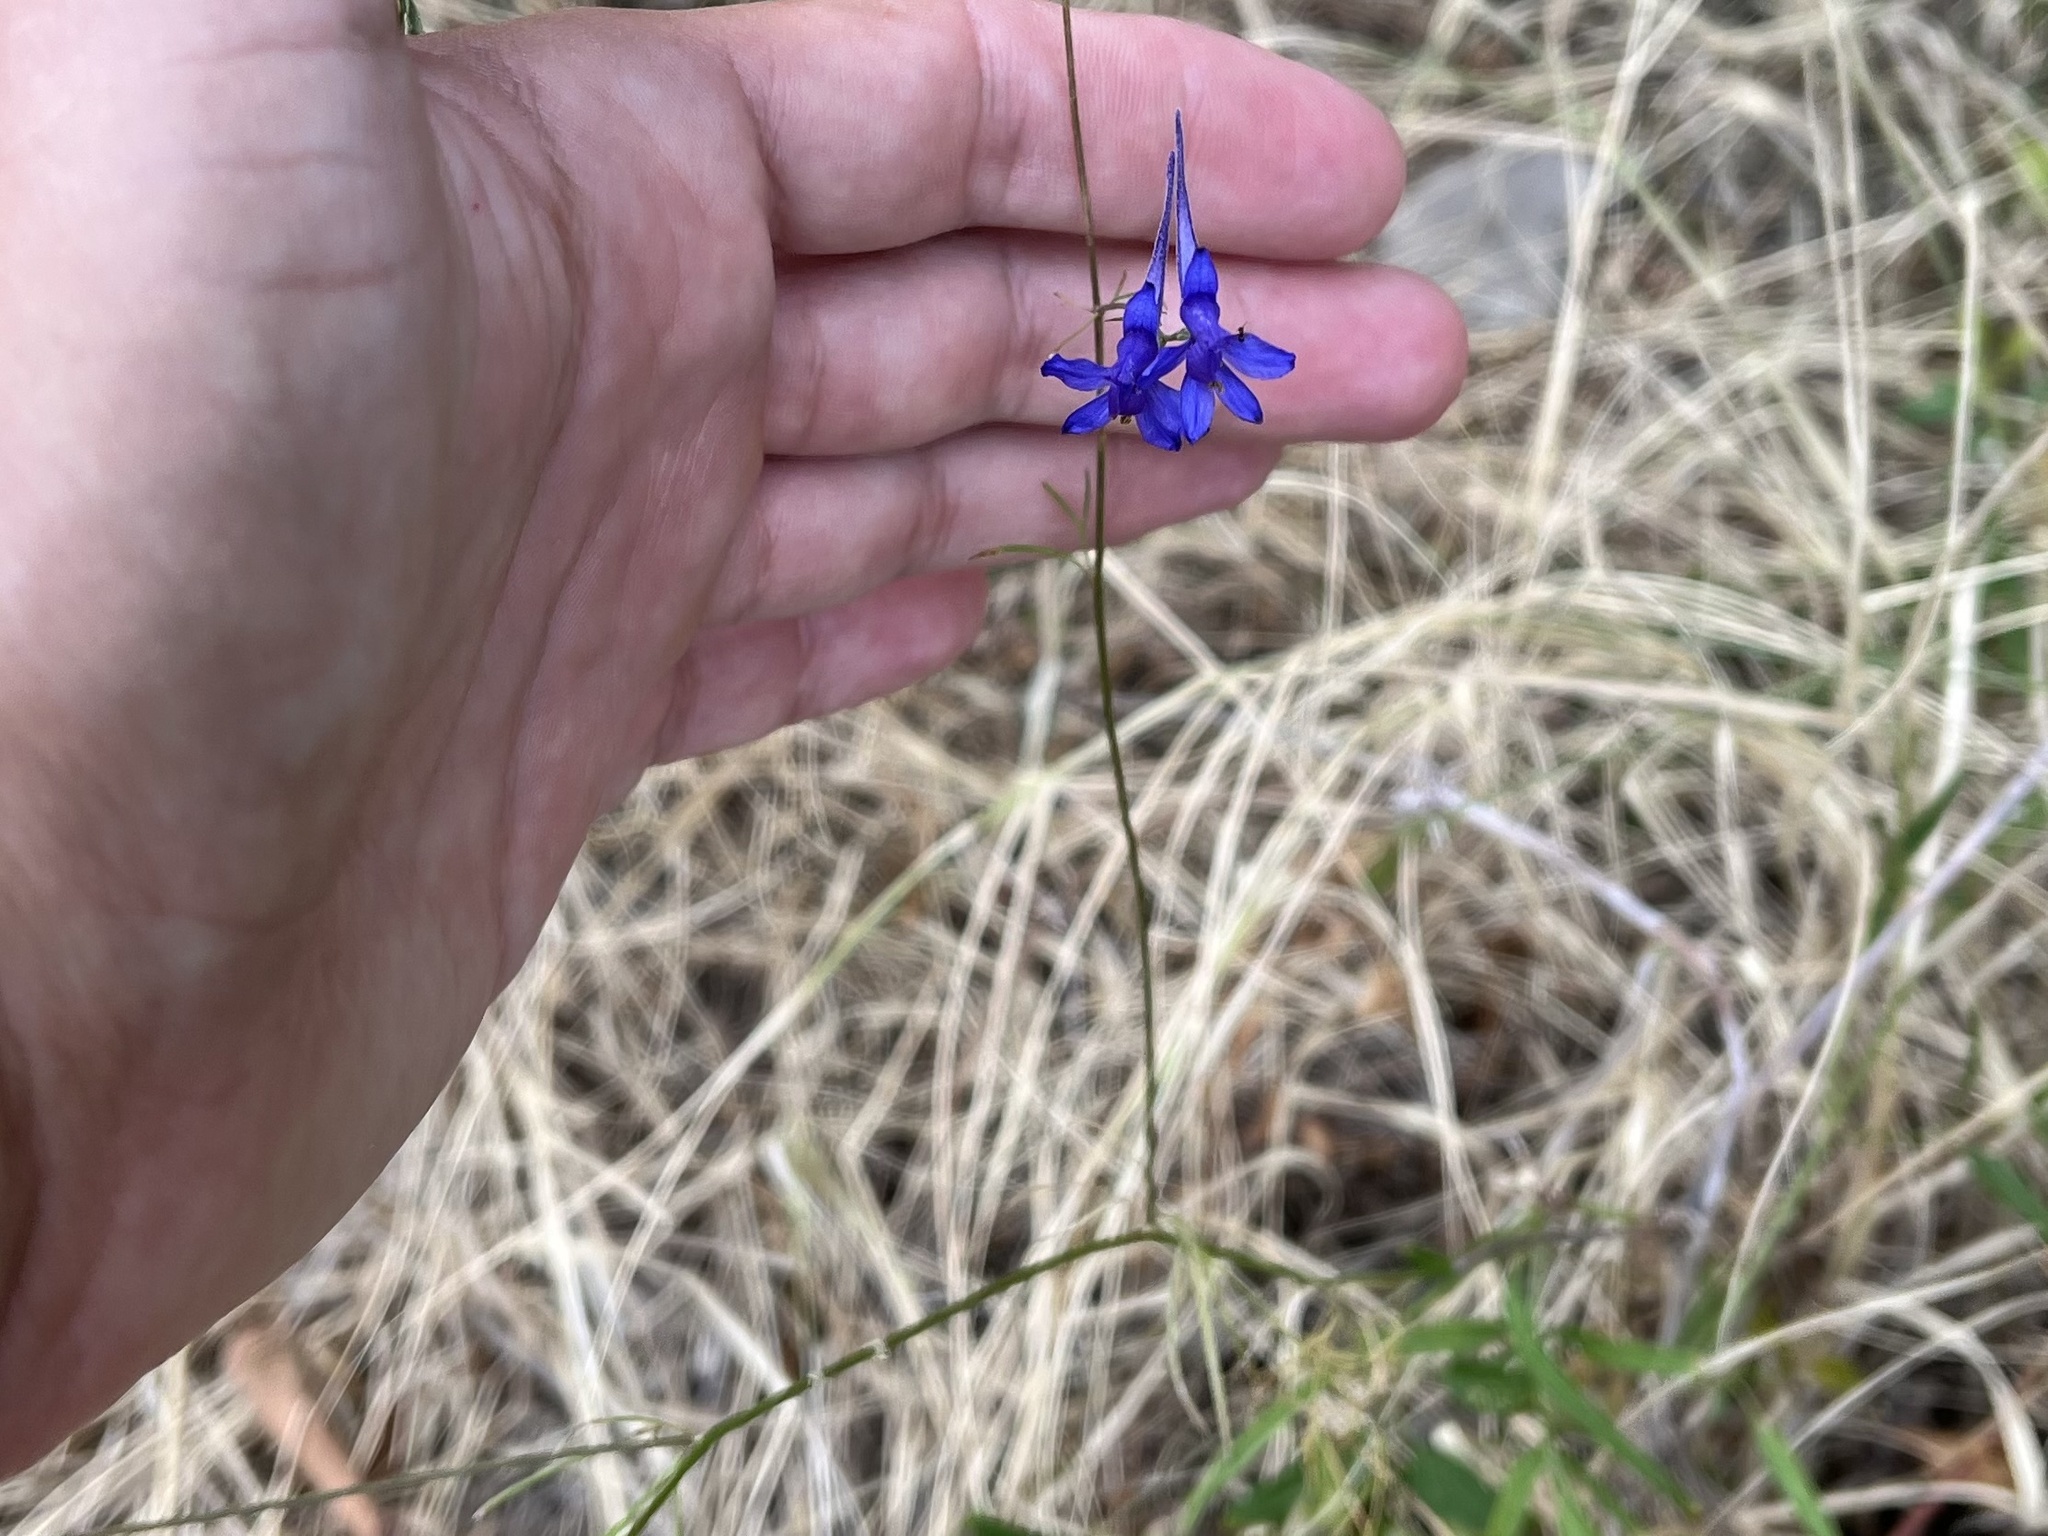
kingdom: Plantae
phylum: Tracheophyta
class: Magnoliopsida
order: Ranunculales
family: Ranunculaceae
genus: Delphinium
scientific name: Delphinium consolida
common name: Branching larkspur
